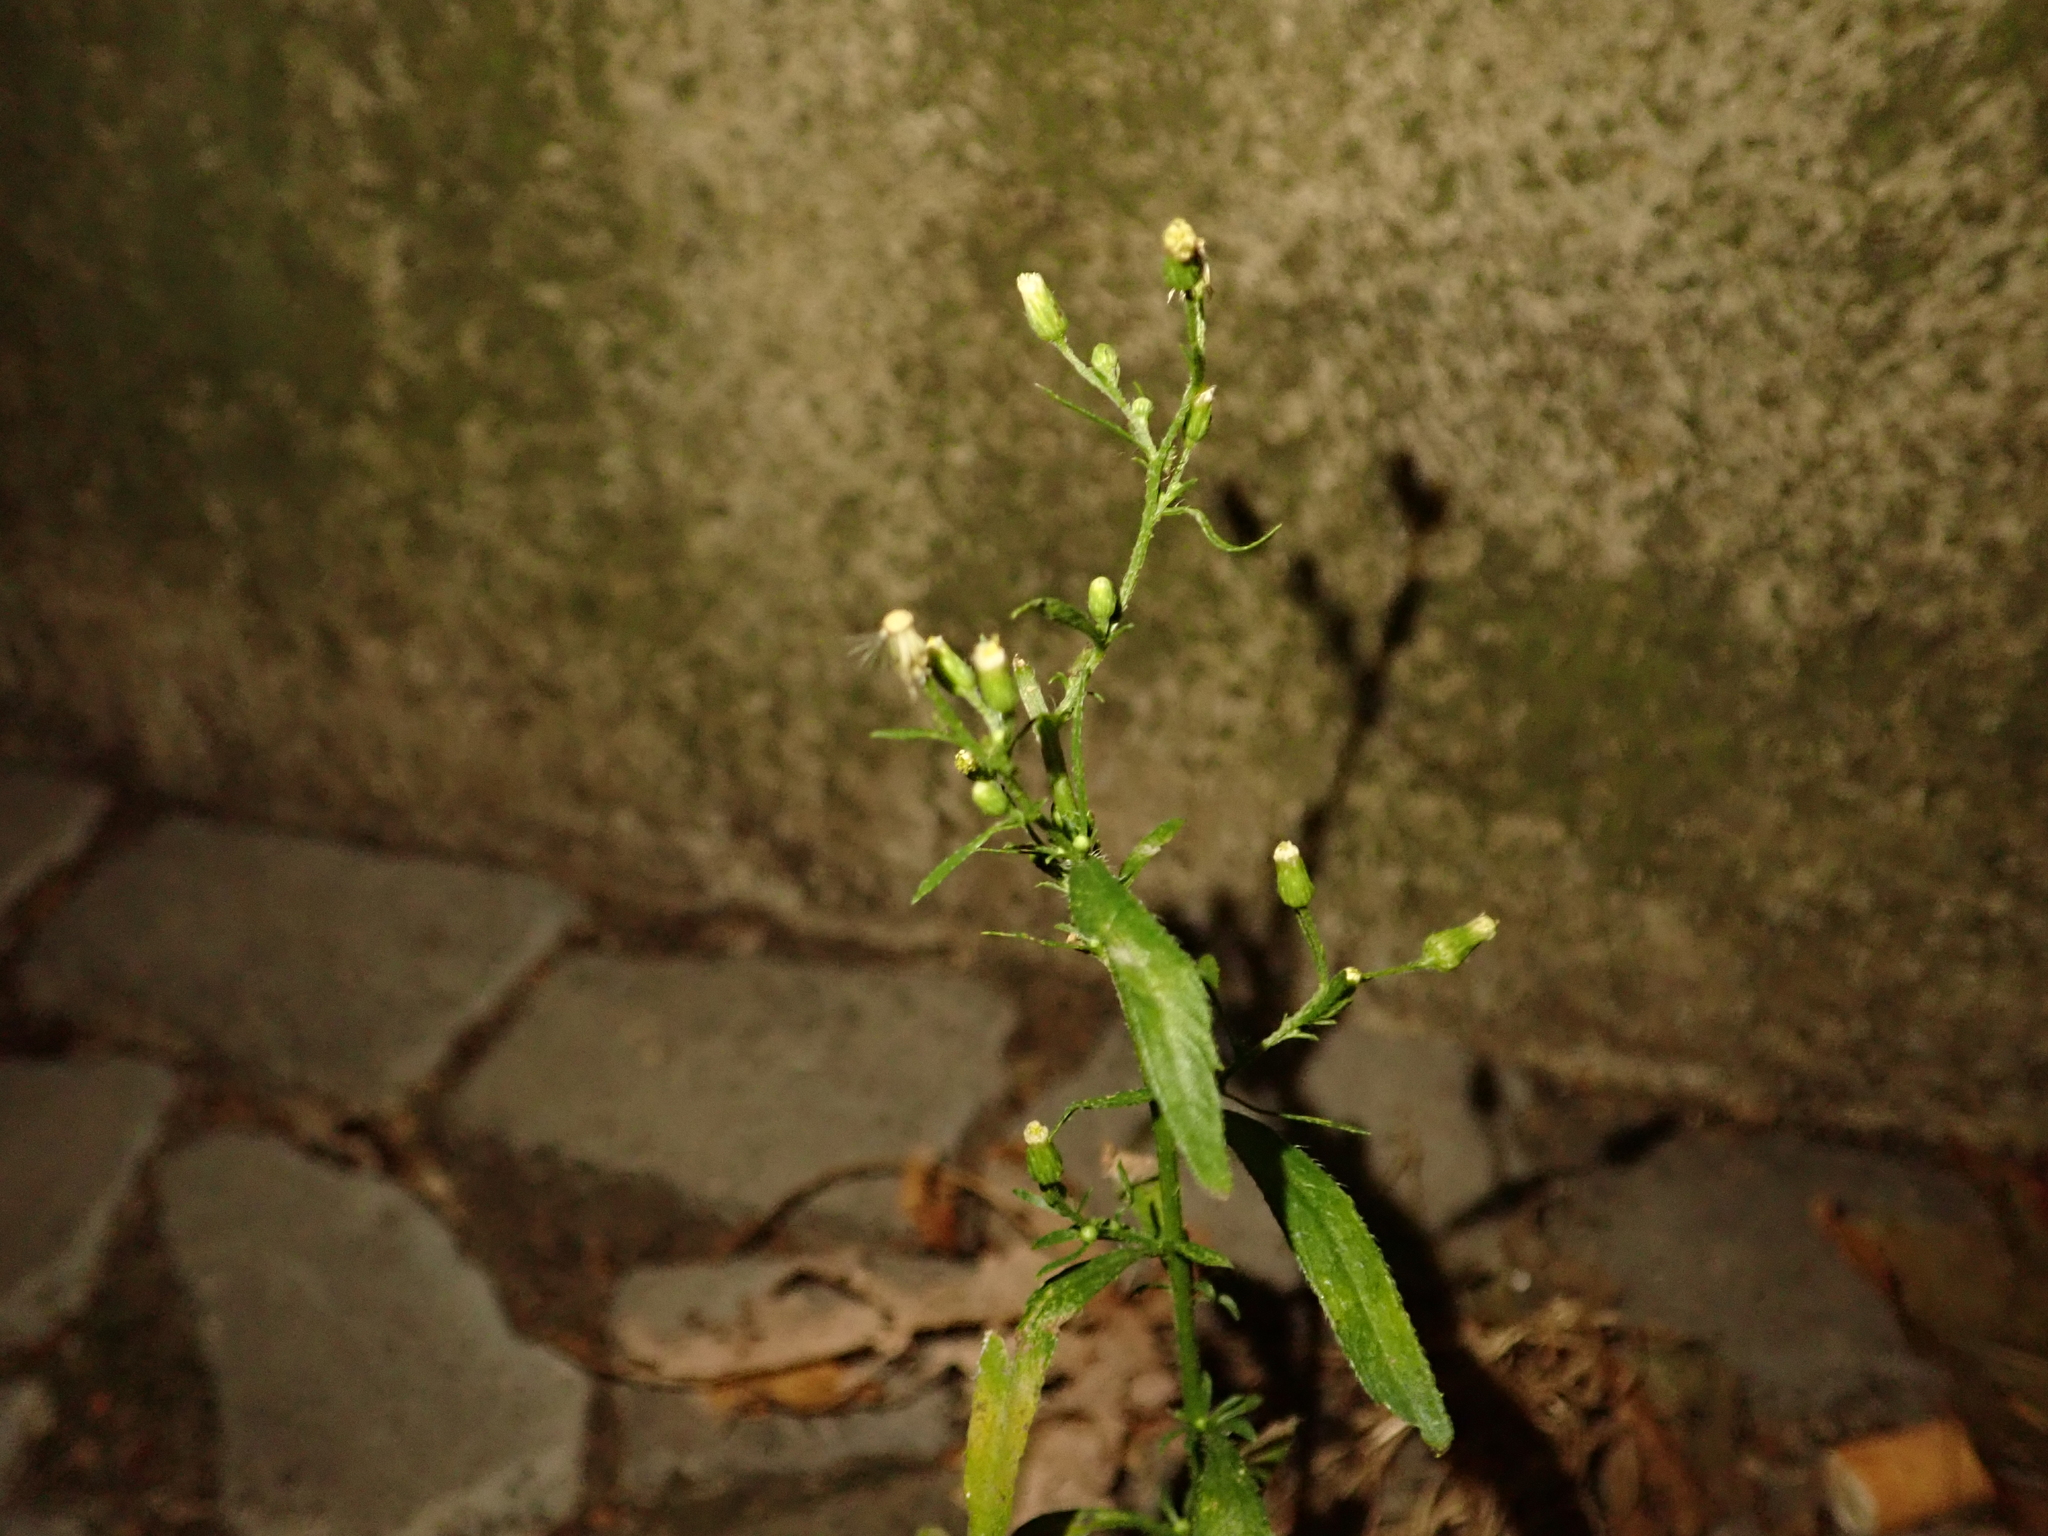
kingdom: Plantae
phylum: Tracheophyta
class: Magnoliopsida
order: Asterales
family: Asteraceae
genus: Erigeron
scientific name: Erigeron canadensis
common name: Canadian fleabane
